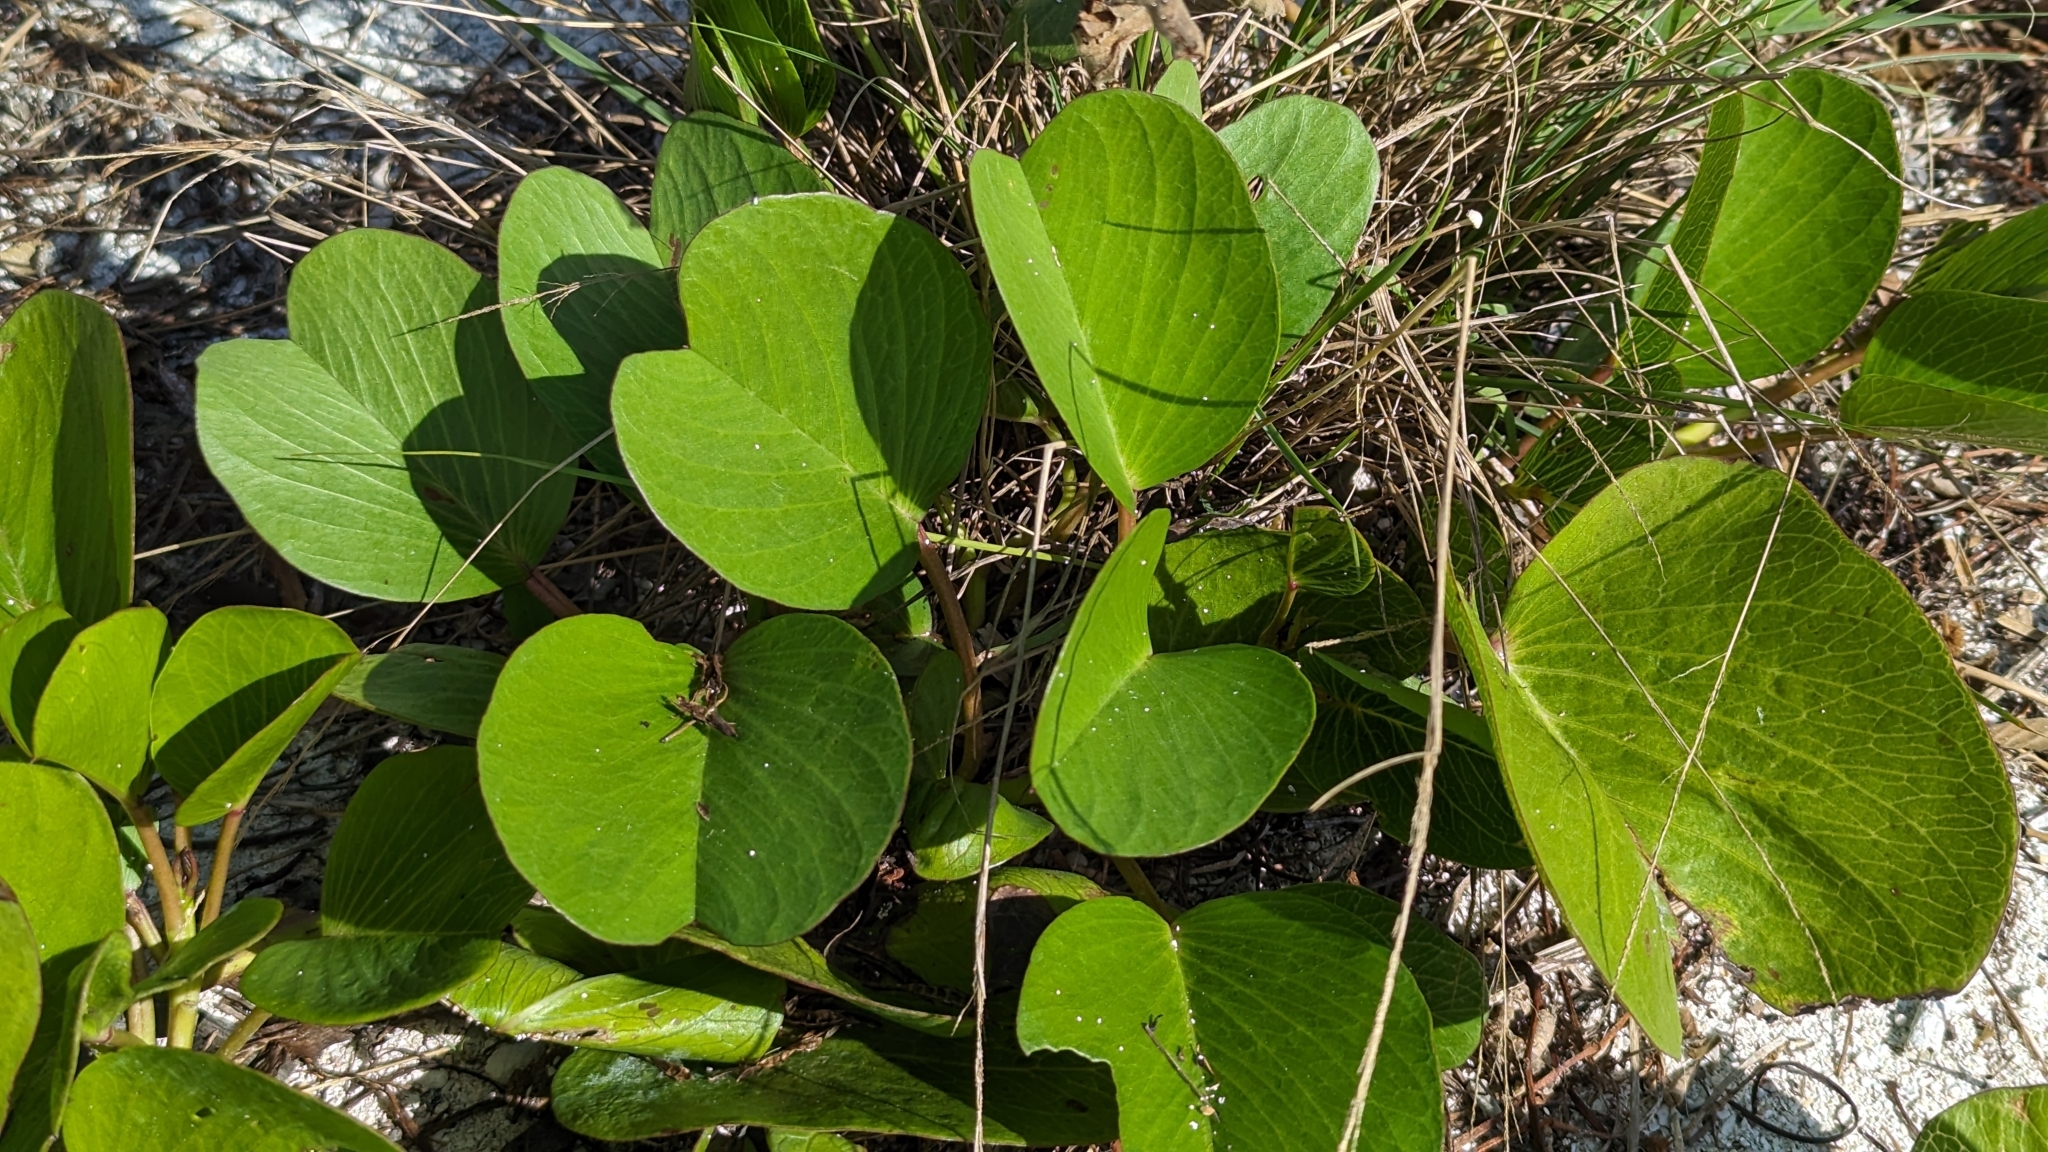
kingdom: Plantae
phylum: Tracheophyta
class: Magnoliopsida
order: Solanales
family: Convolvulaceae
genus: Ipomoea
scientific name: Ipomoea pes-caprae
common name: Beach morning glory
